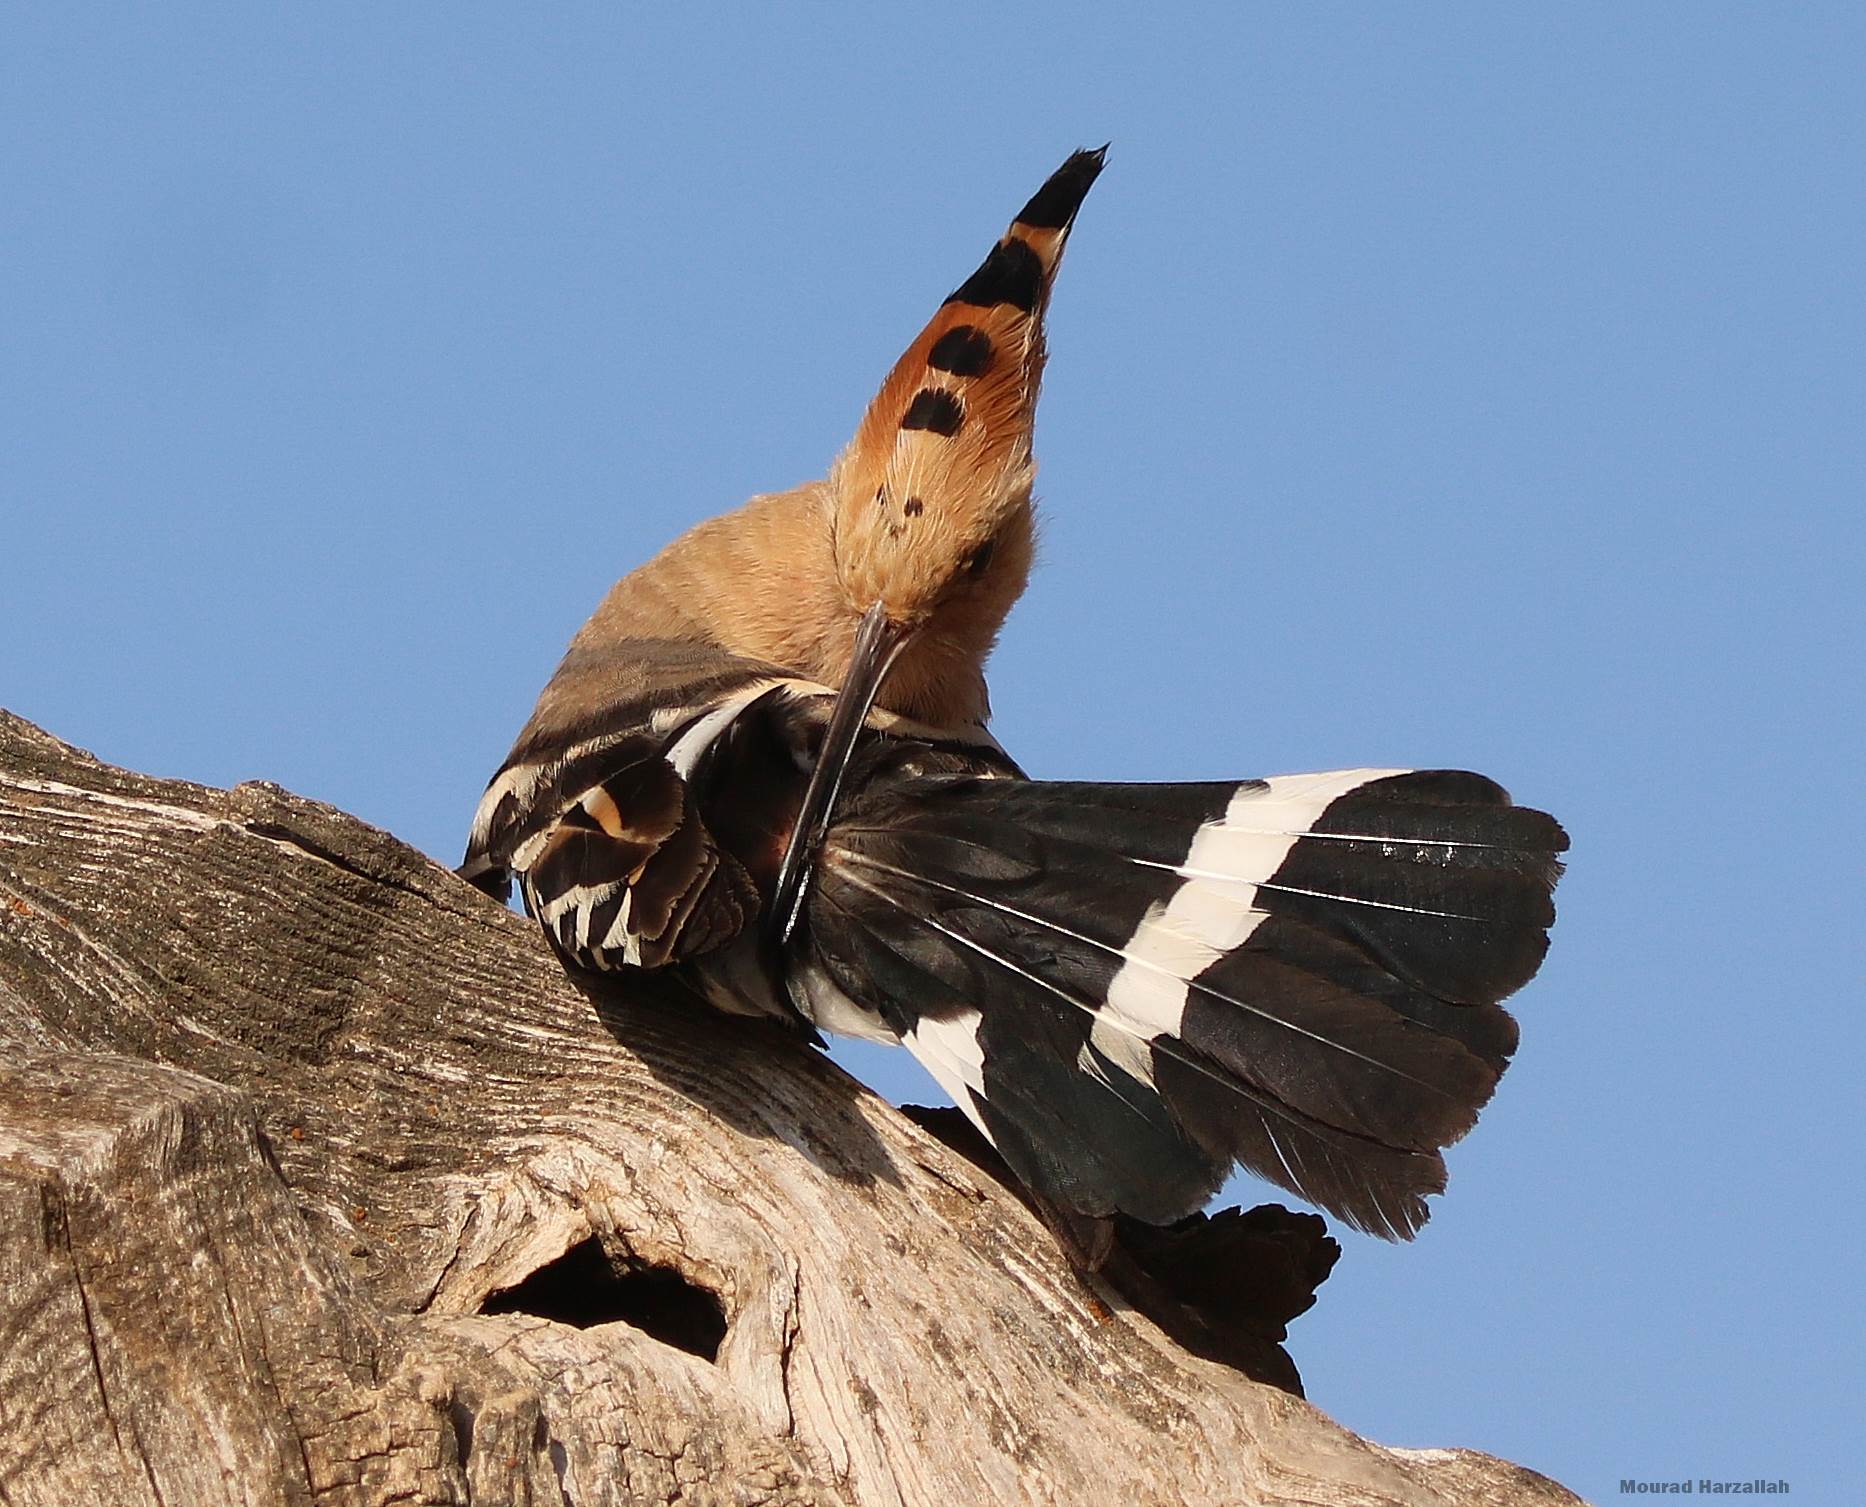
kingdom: Animalia
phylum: Chordata
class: Aves
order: Bucerotiformes
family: Upupidae
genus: Upupa
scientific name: Upupa epops
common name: Eurasian hoopoe
